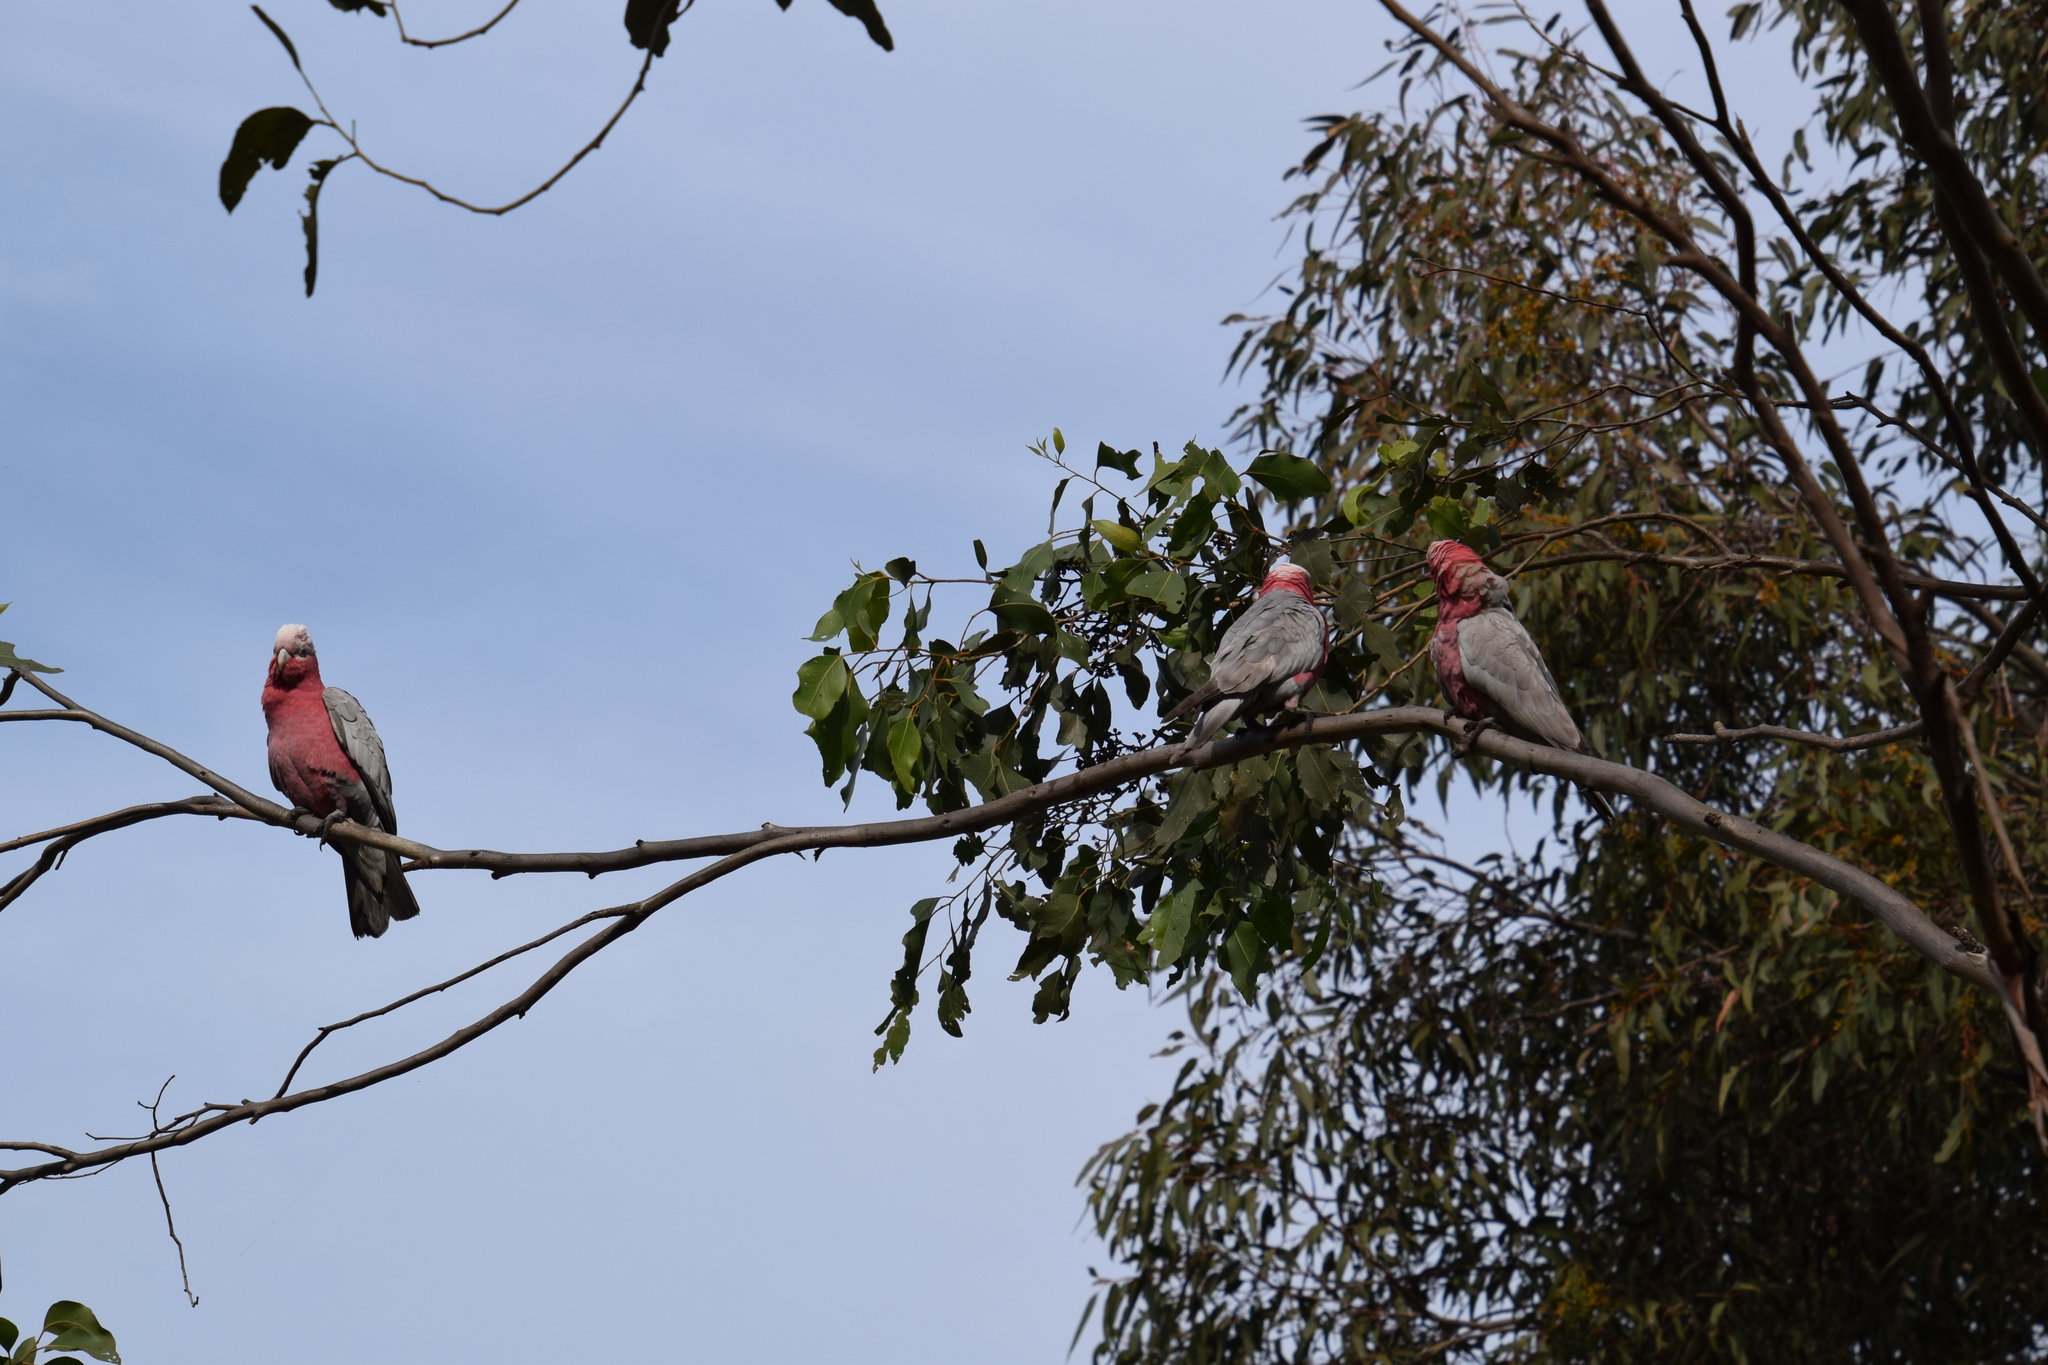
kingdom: Animalia
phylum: Chordata
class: Aves
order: Psittaciformes
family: Psittacidae
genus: Eolophus
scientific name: Eolophus roseicapilla
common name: Galah
